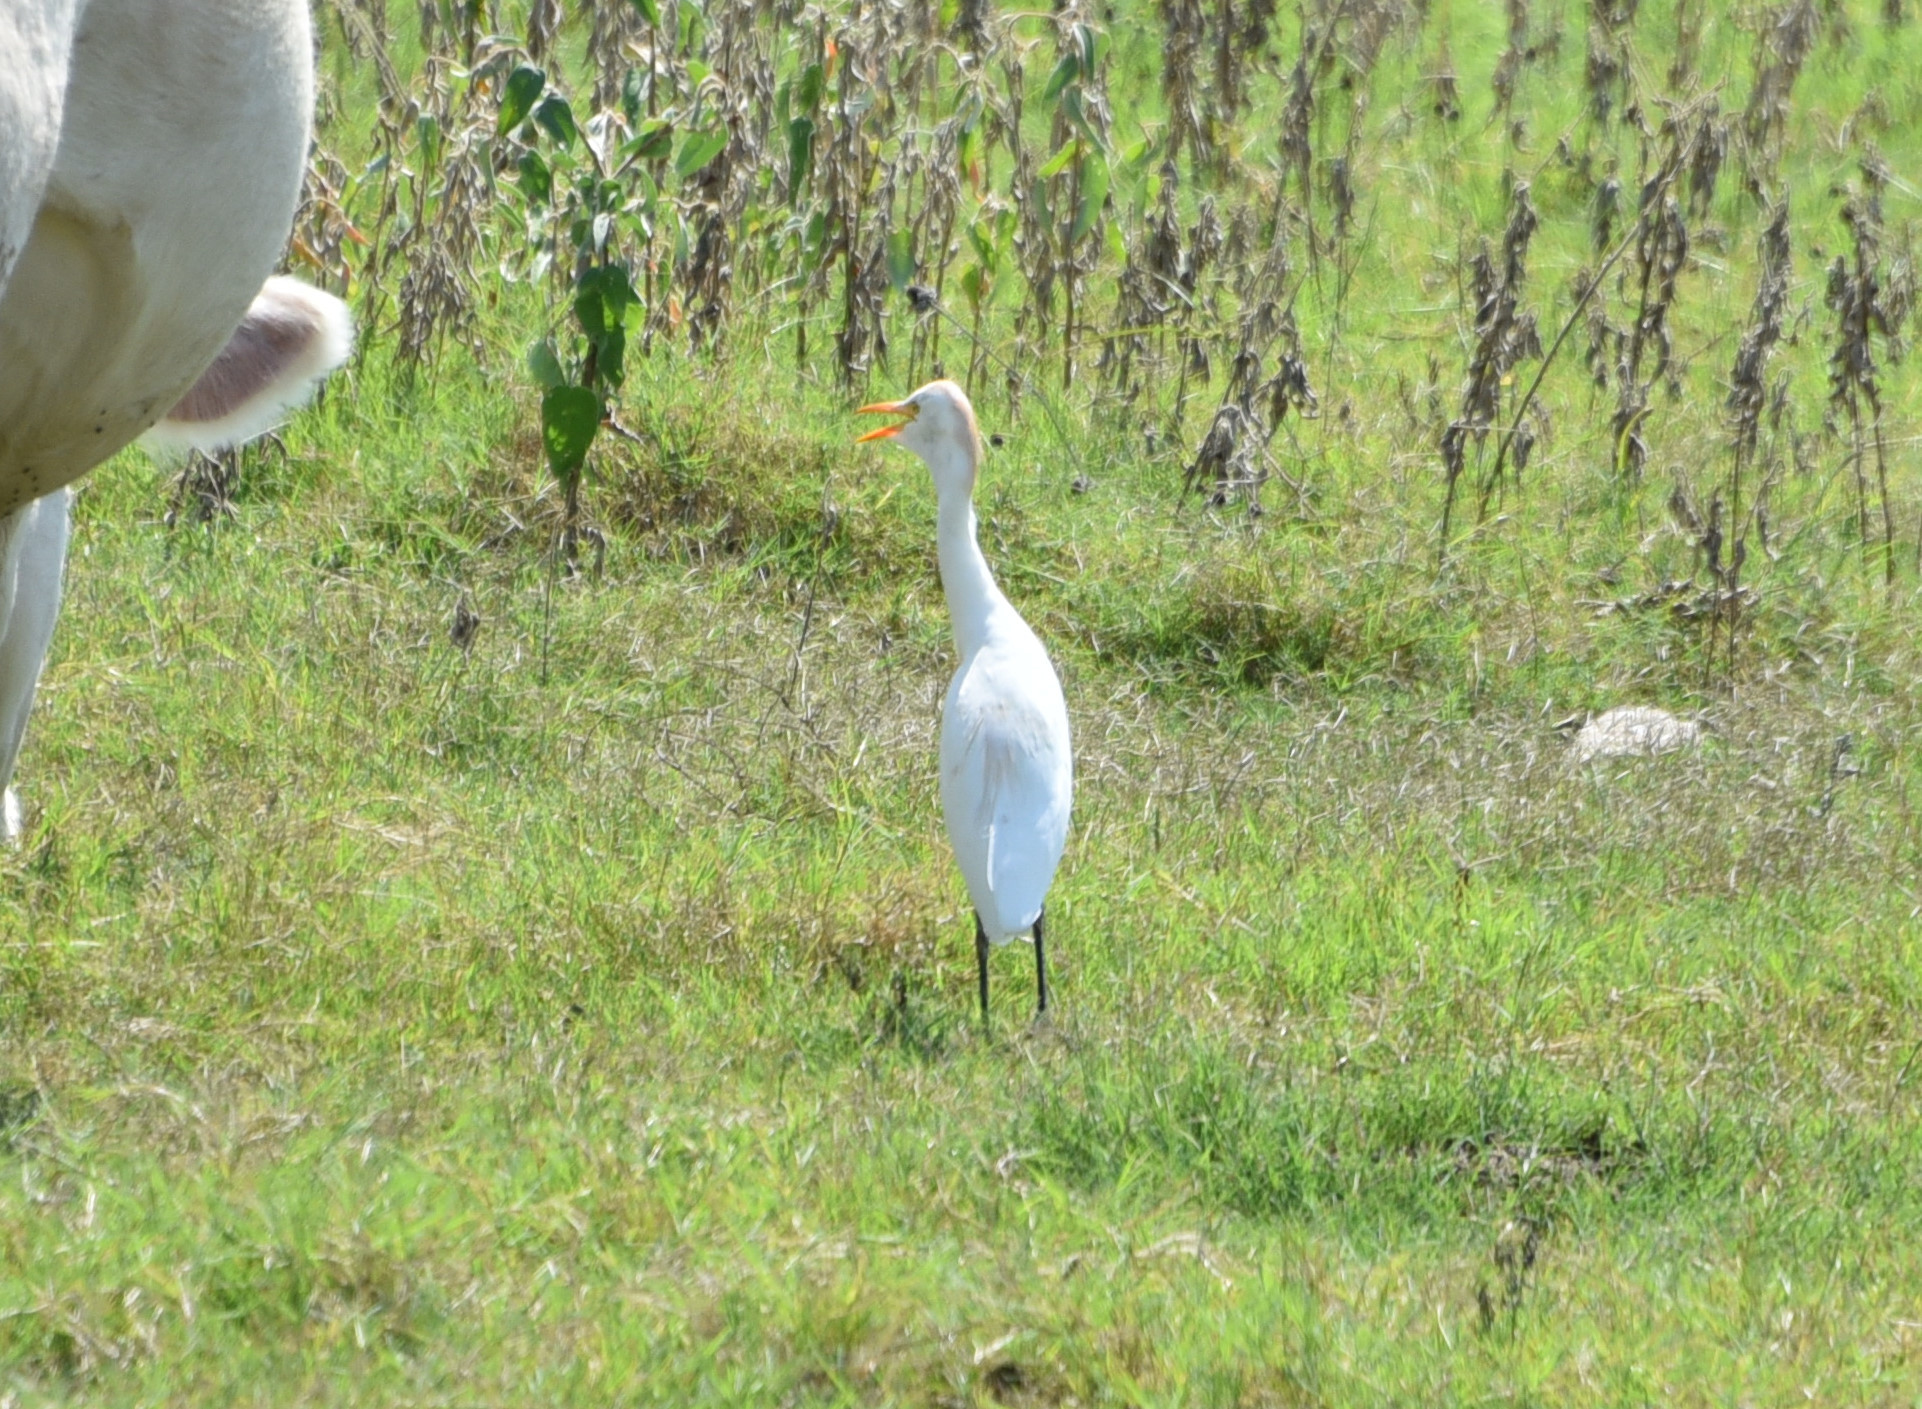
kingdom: Animalia
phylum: Chordata
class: Aves
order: Pelecaniformes
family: Ardeidae
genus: Bubulcus
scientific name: Bubulcus ibis
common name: Cattle egret
